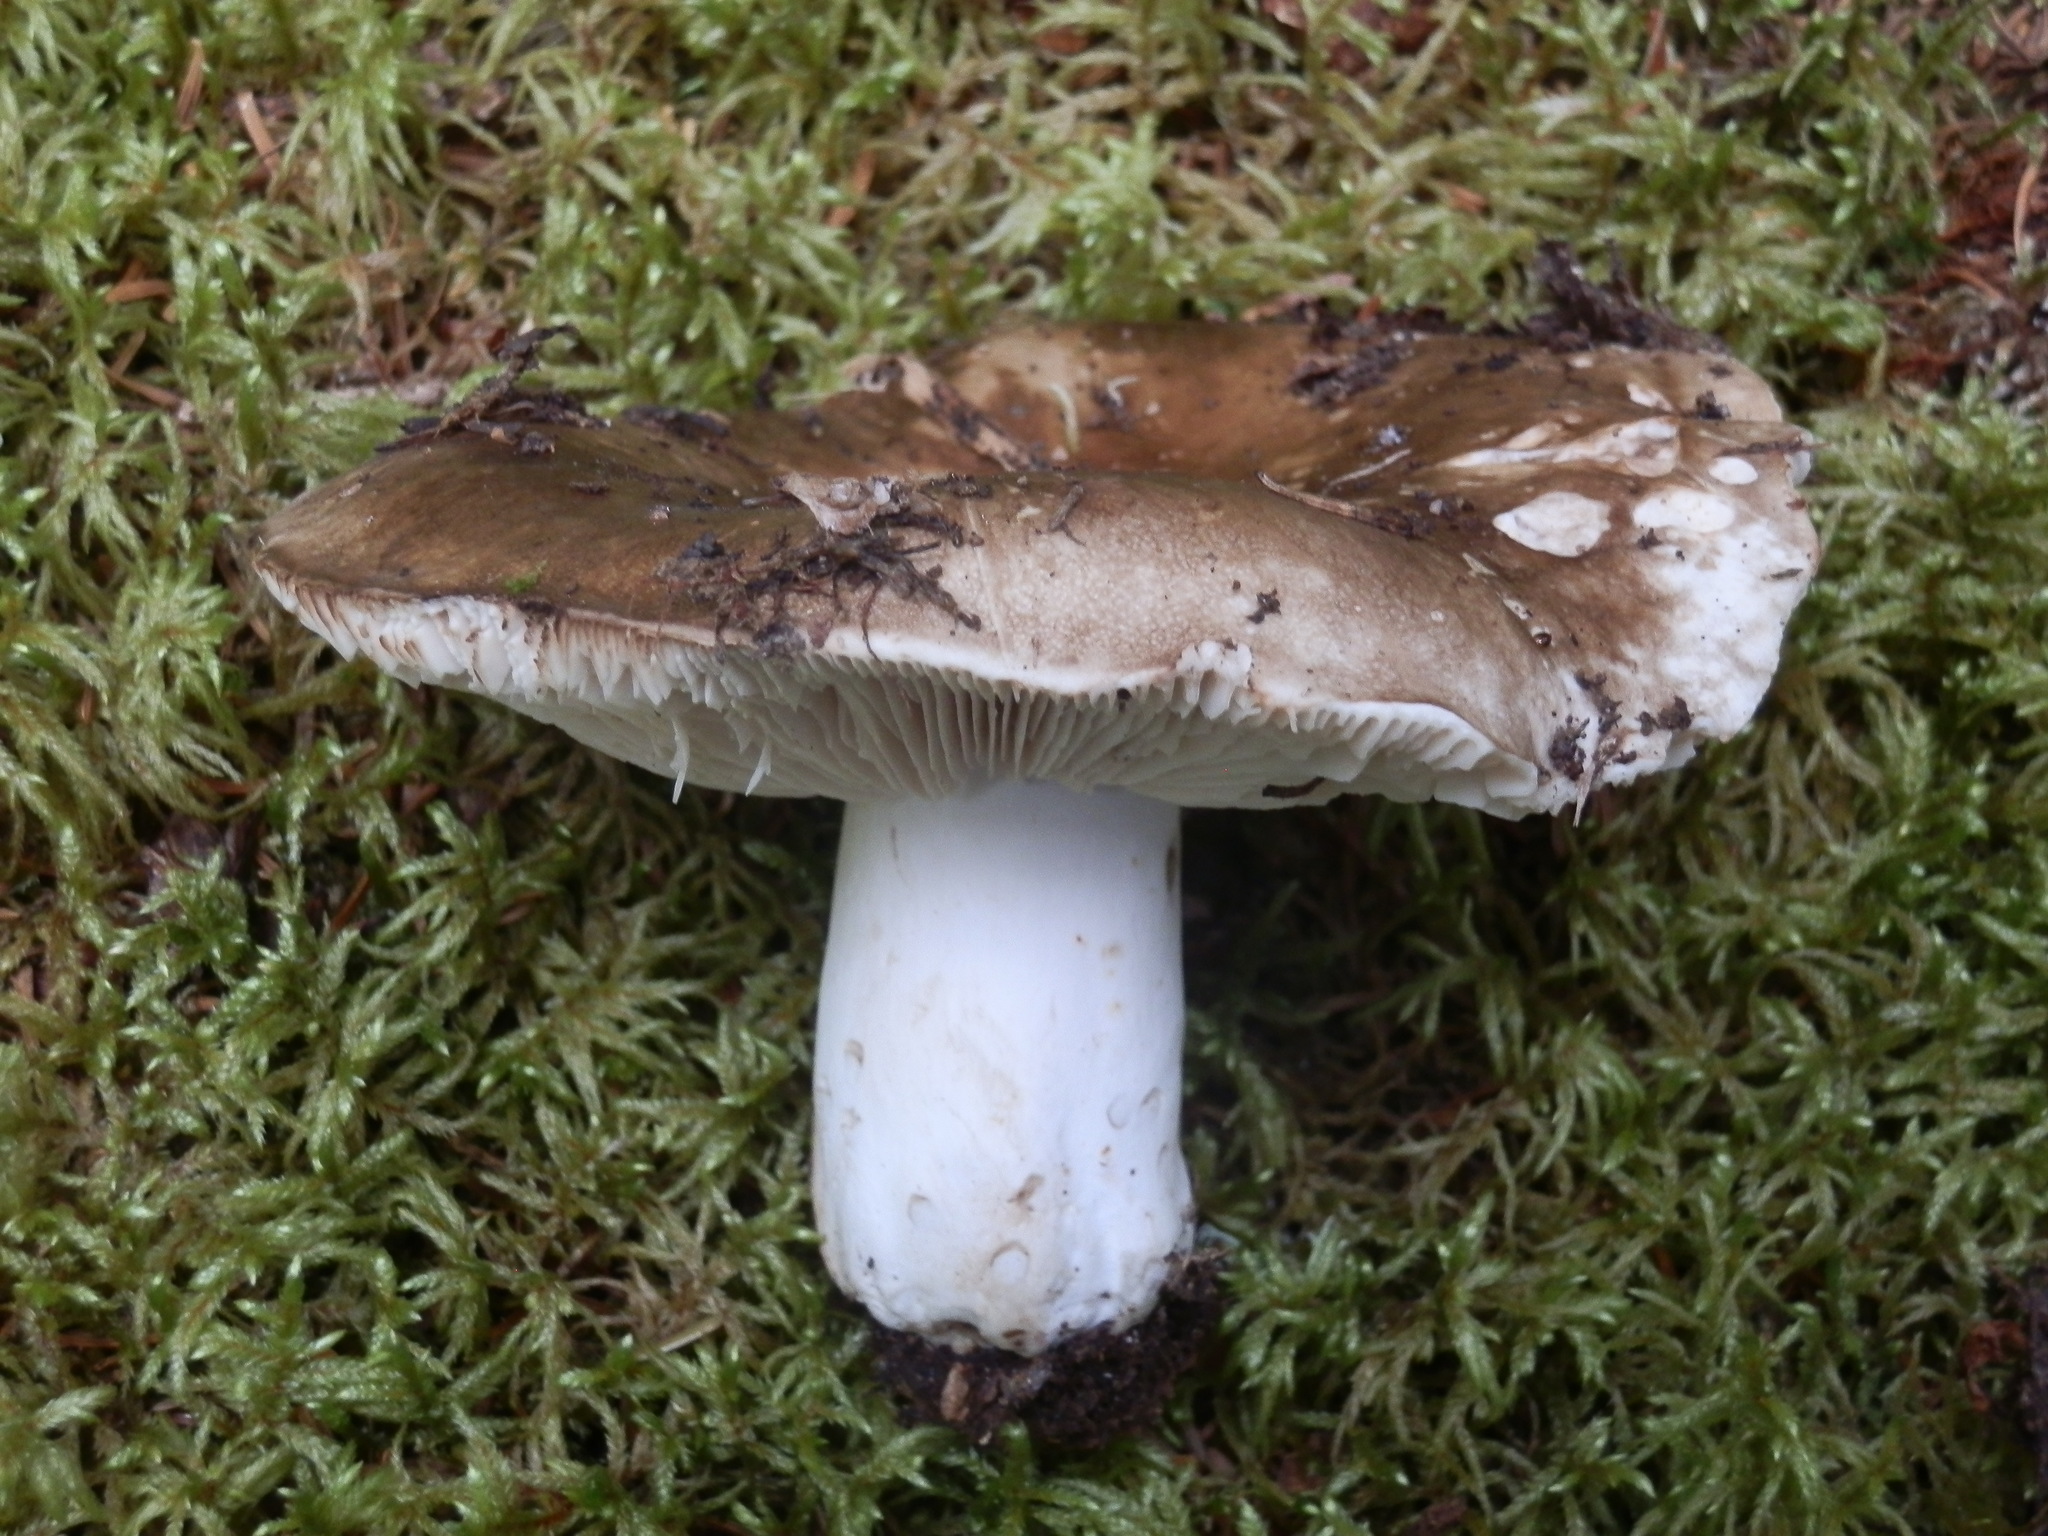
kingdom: Fungi
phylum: Basidiomycota
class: Agaricomycetes
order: Russulales
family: Russulaceae
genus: Russula
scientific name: Russula adusta
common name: Winecork brittlegill
